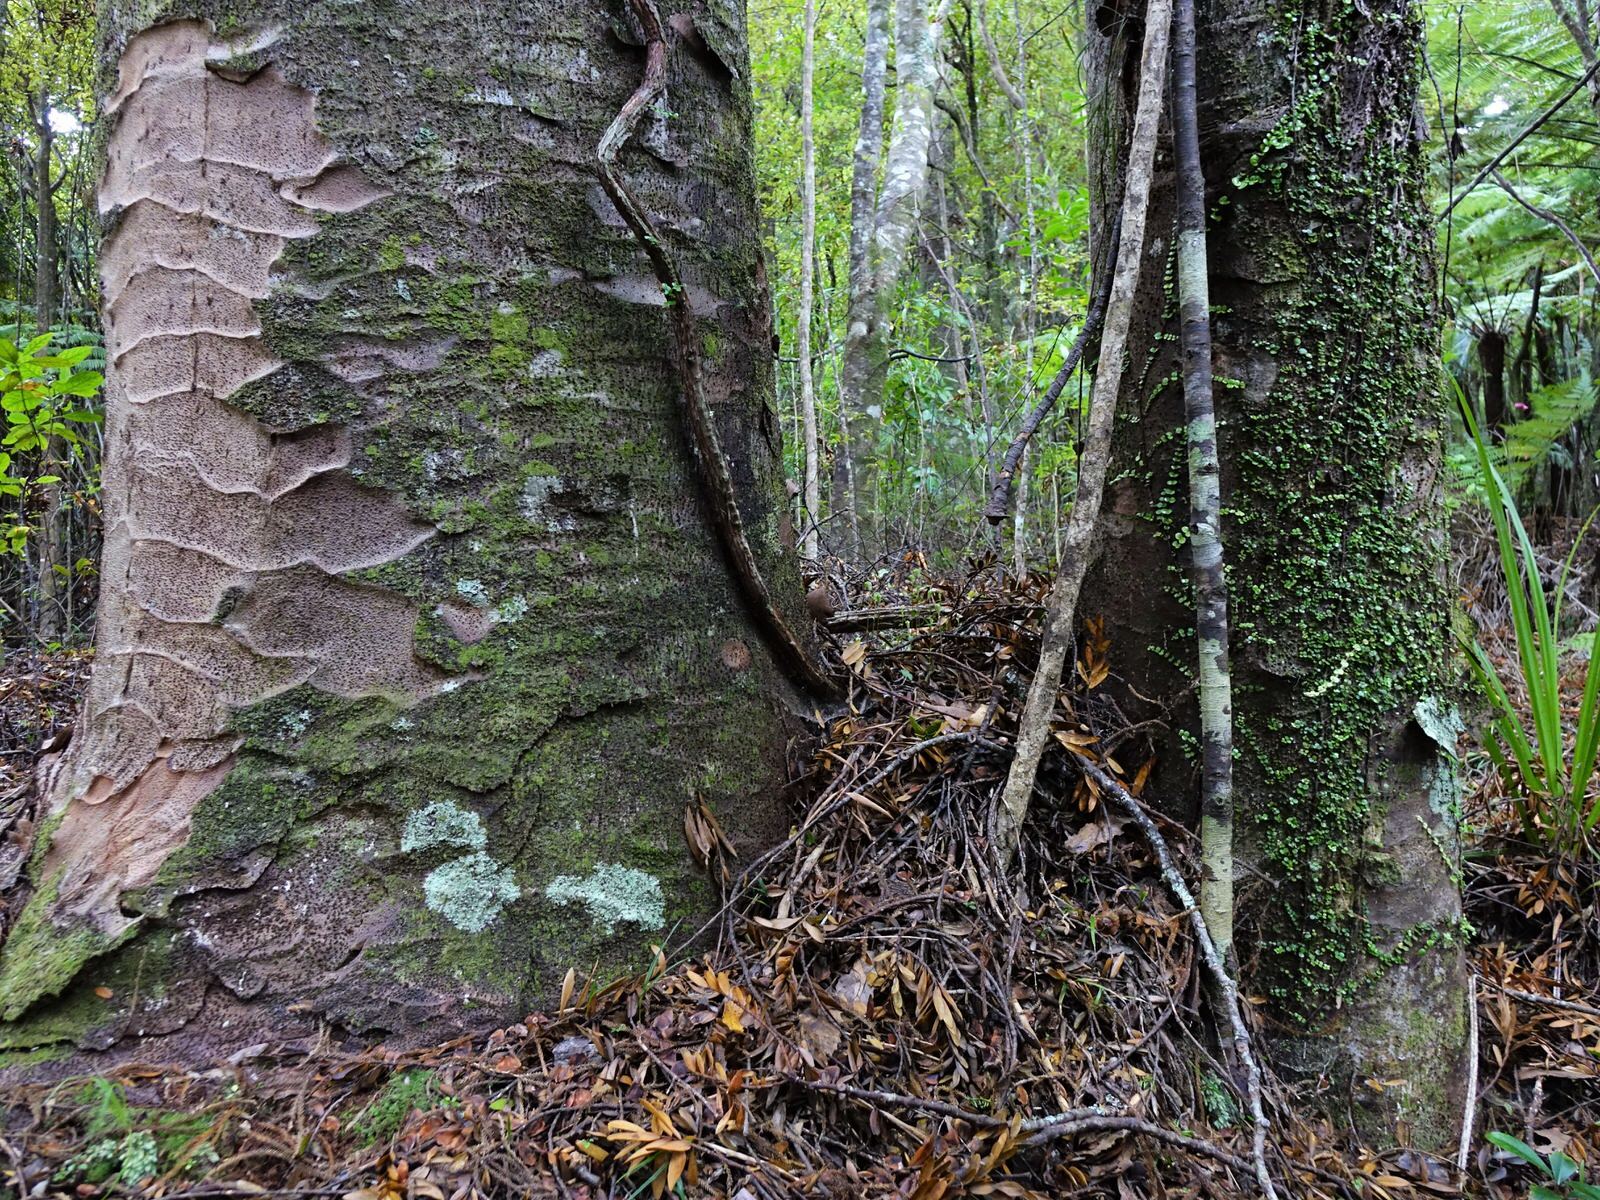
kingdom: Plantae
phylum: Tracheophyta
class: Liliopsida
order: Asparagales
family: Orchidaceae
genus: Pterostylis
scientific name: Pterostylis brumalis
